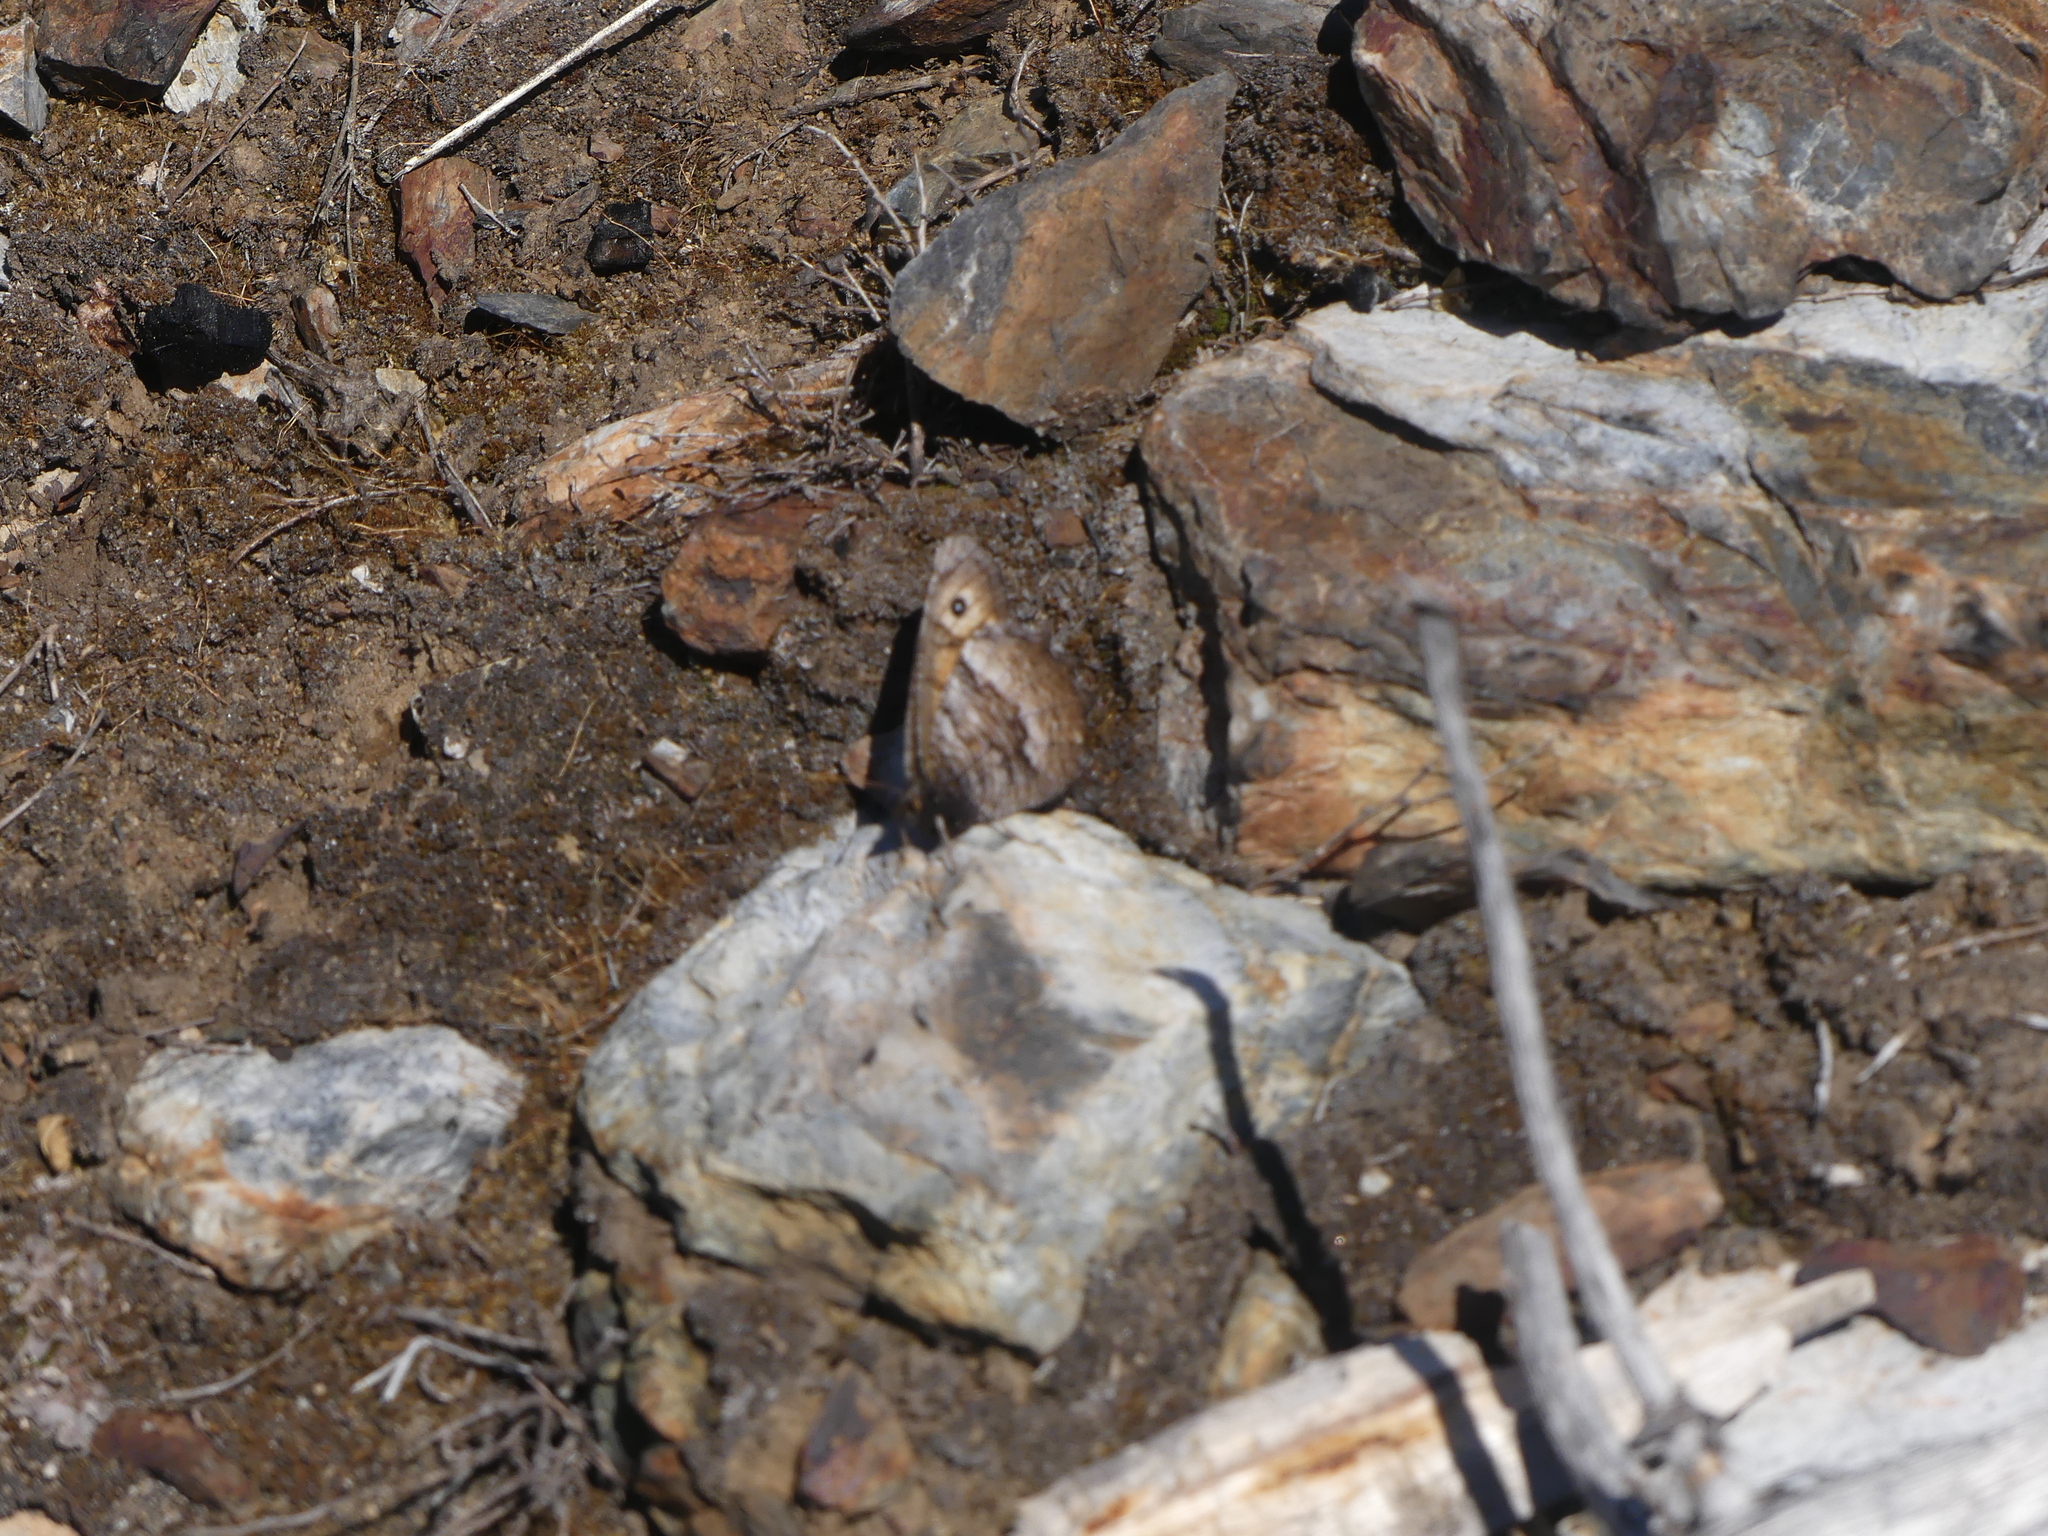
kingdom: Animalia
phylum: Arthropoda
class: Insecta
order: Lepidoptera
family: Nymphalidae
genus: Oeneis
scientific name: Oeneis macounii
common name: Macoun's arctic
